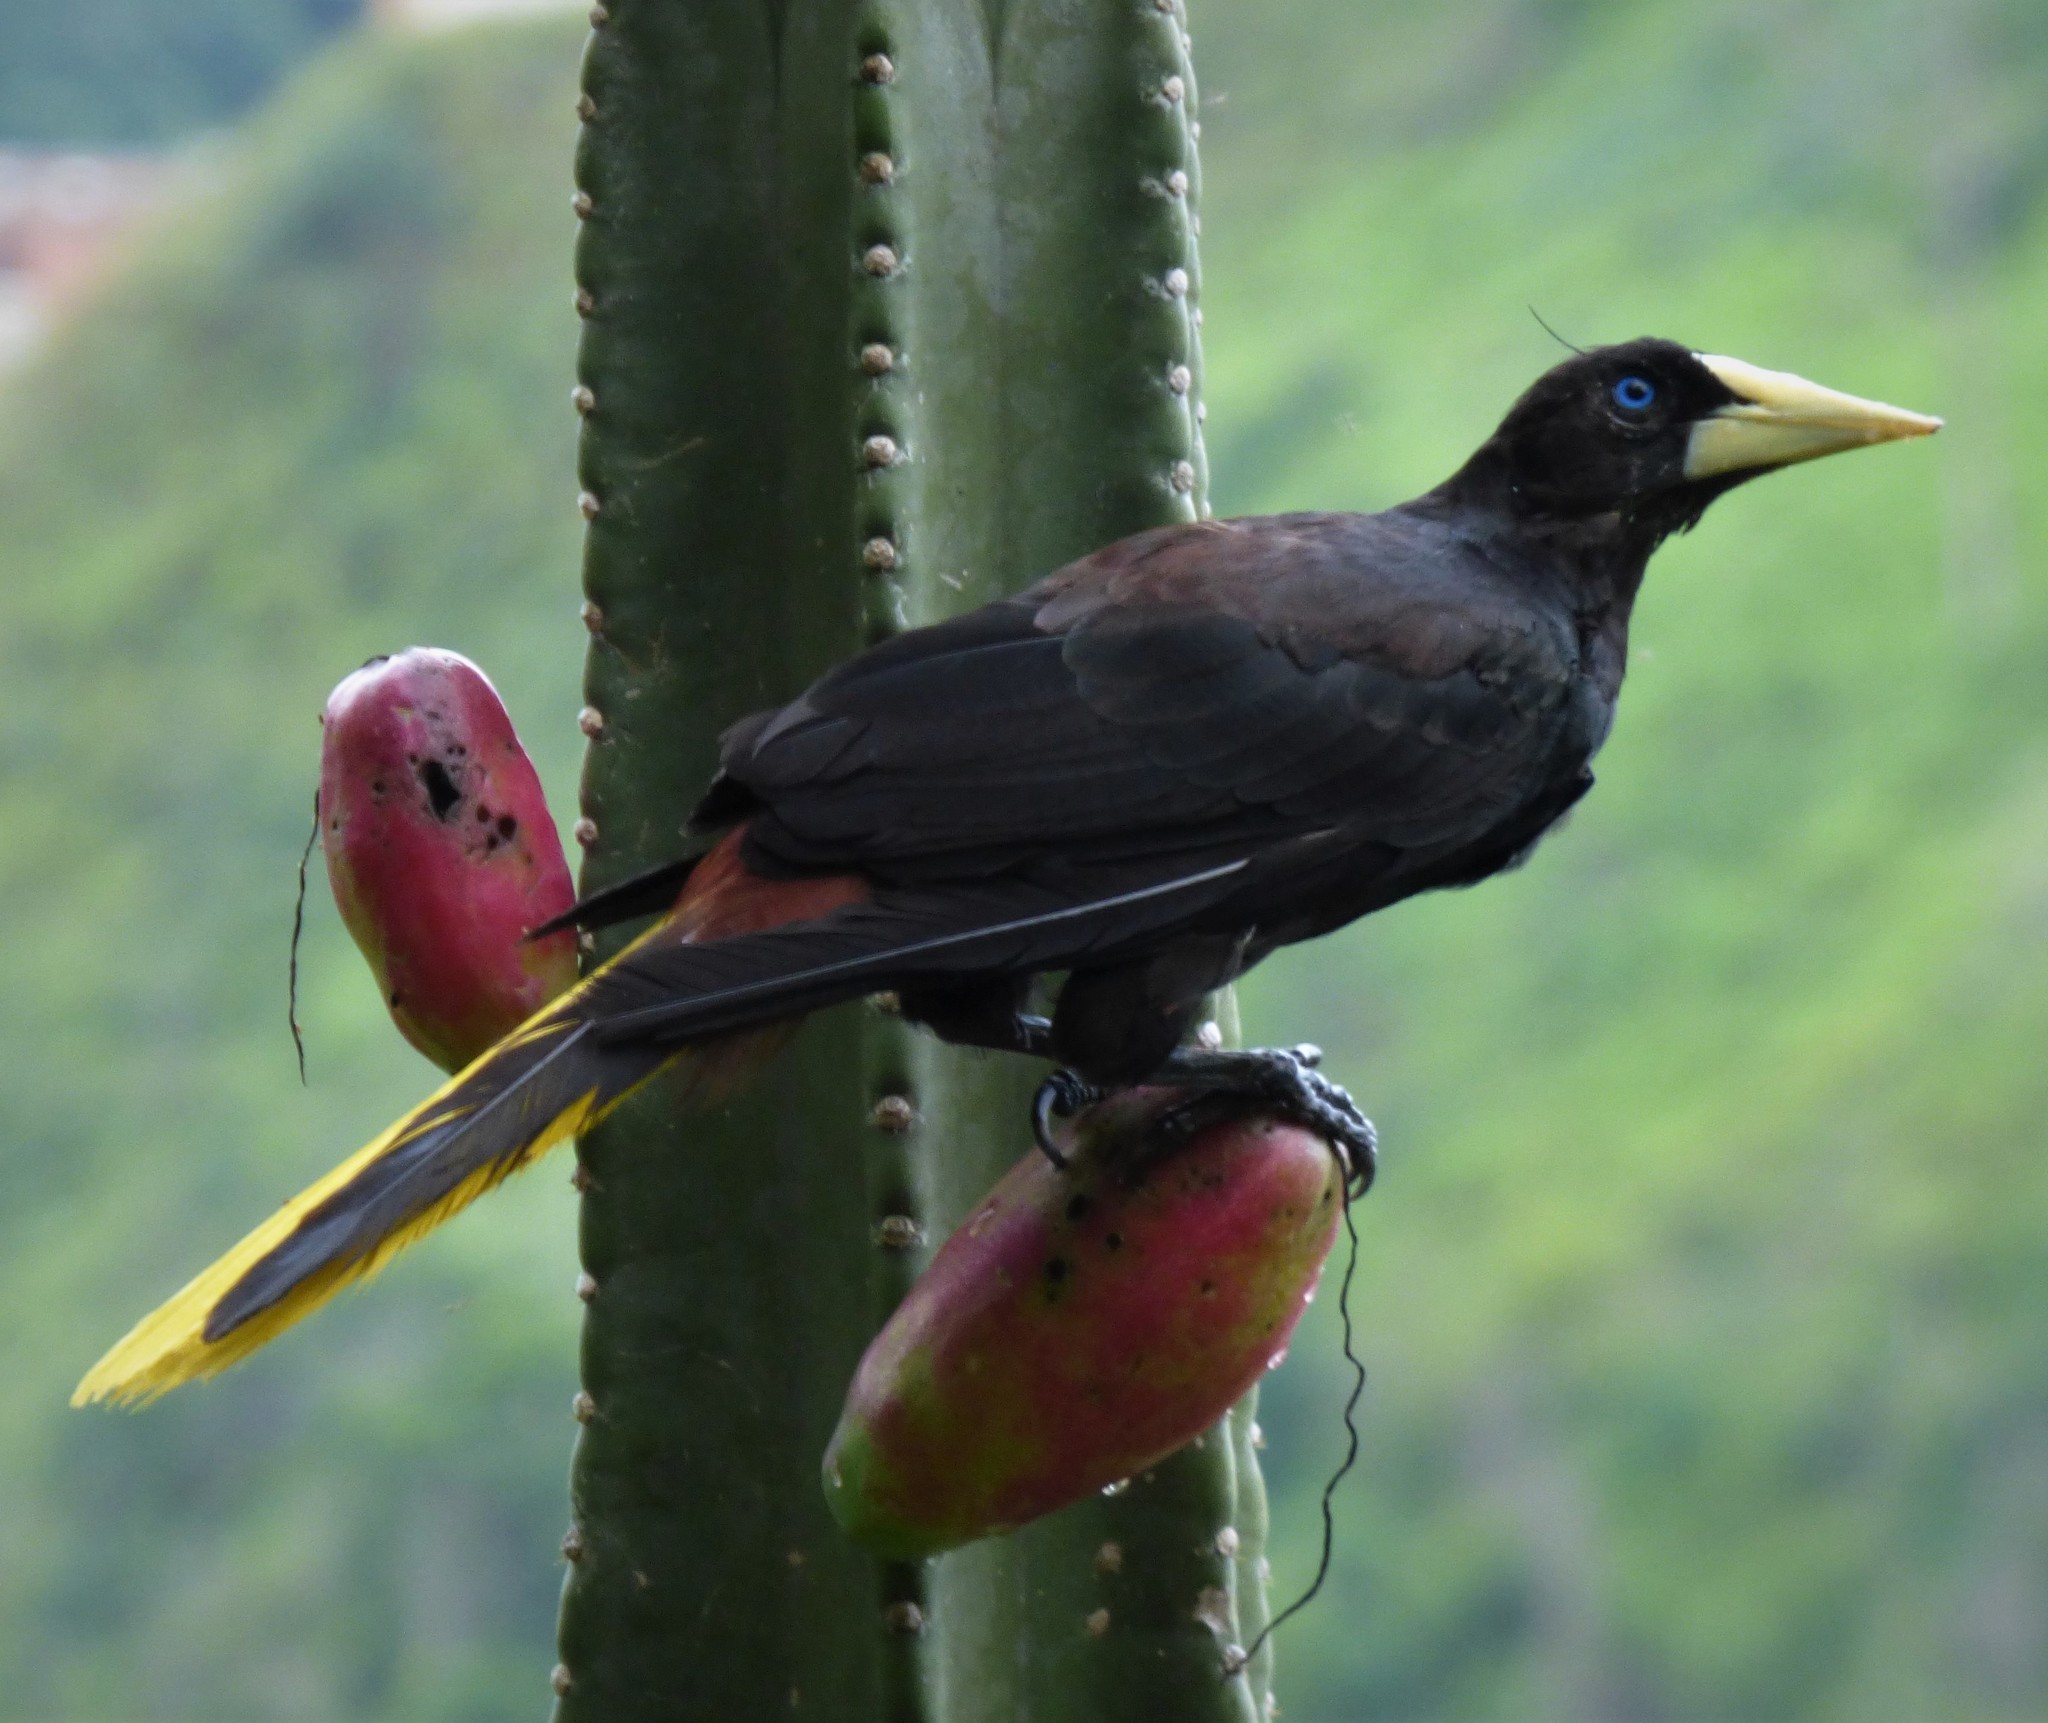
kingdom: Animalia
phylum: Chordata
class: Aves
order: Passeriformes
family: Icteridae
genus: Psarocolius
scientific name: Psarocolius decumanus
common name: Crested oropendola
